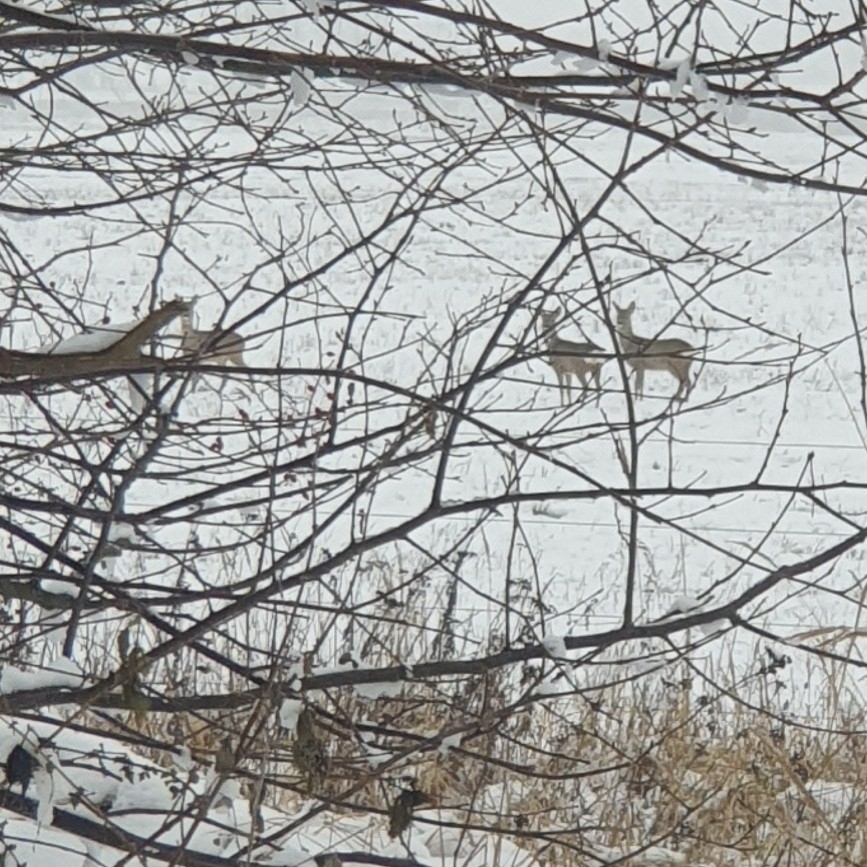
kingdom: Animalia
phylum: Chordata
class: Mammalia
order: Artiodactyla
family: Cervidae
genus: Capreolus
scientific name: Capreolus capreolus
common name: Western roe deer
